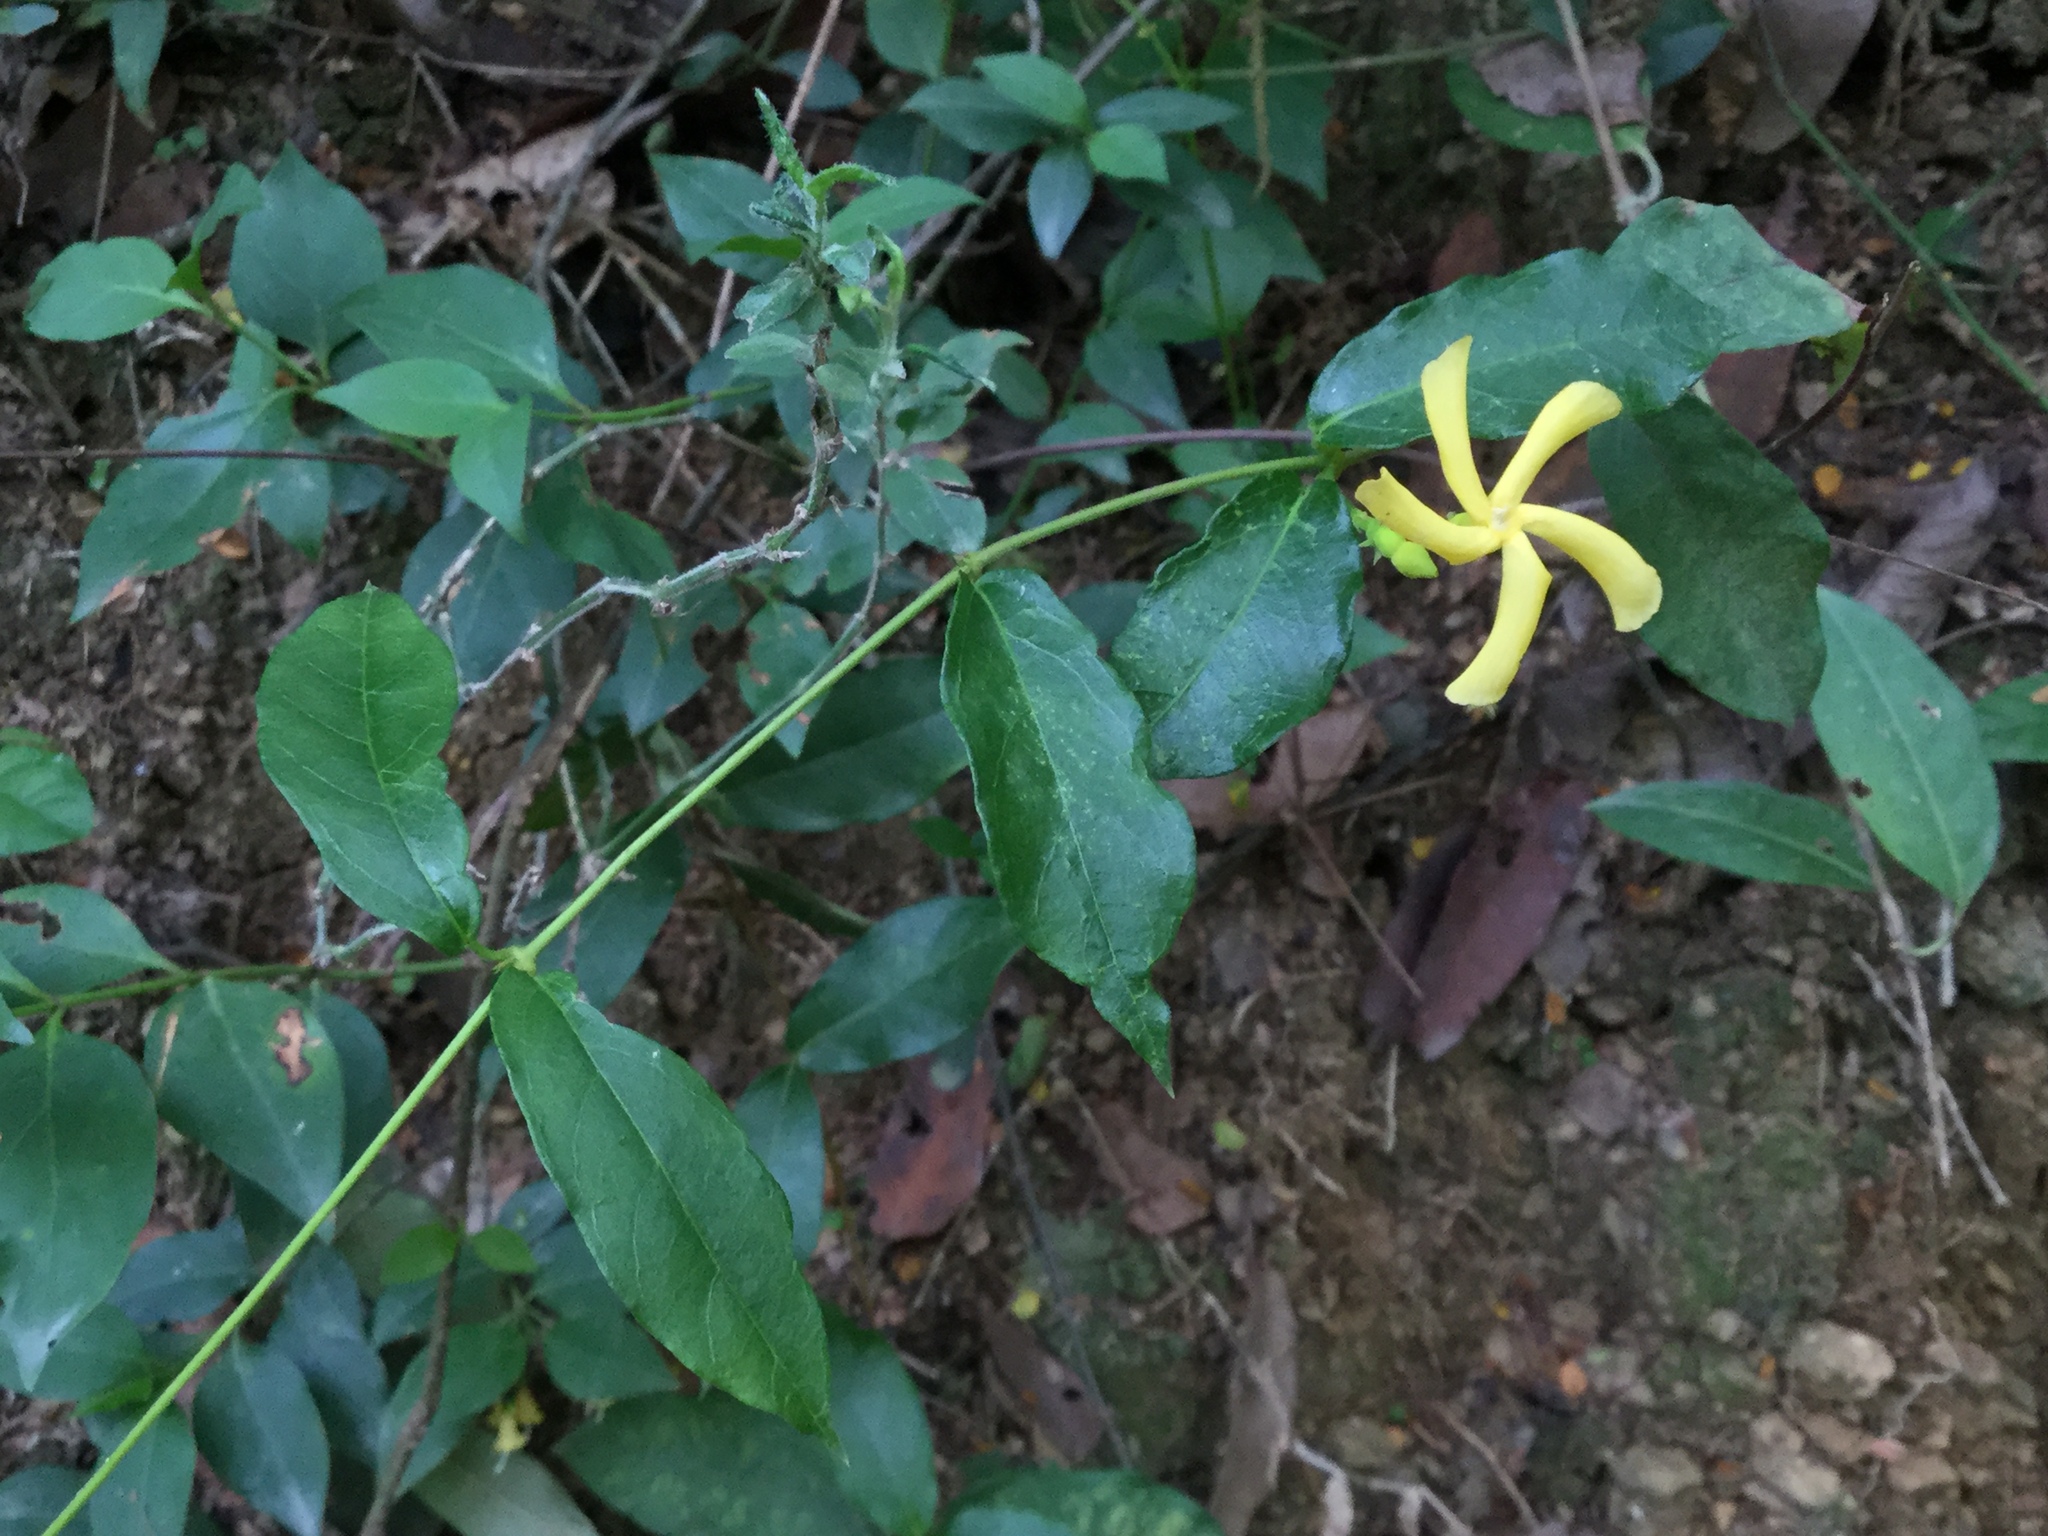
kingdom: Plantae
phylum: Tracheophyta
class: Magnoliopsida
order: Gentianales
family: Apocynaceae
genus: Mandevilla
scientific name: Mandevilla torosa
